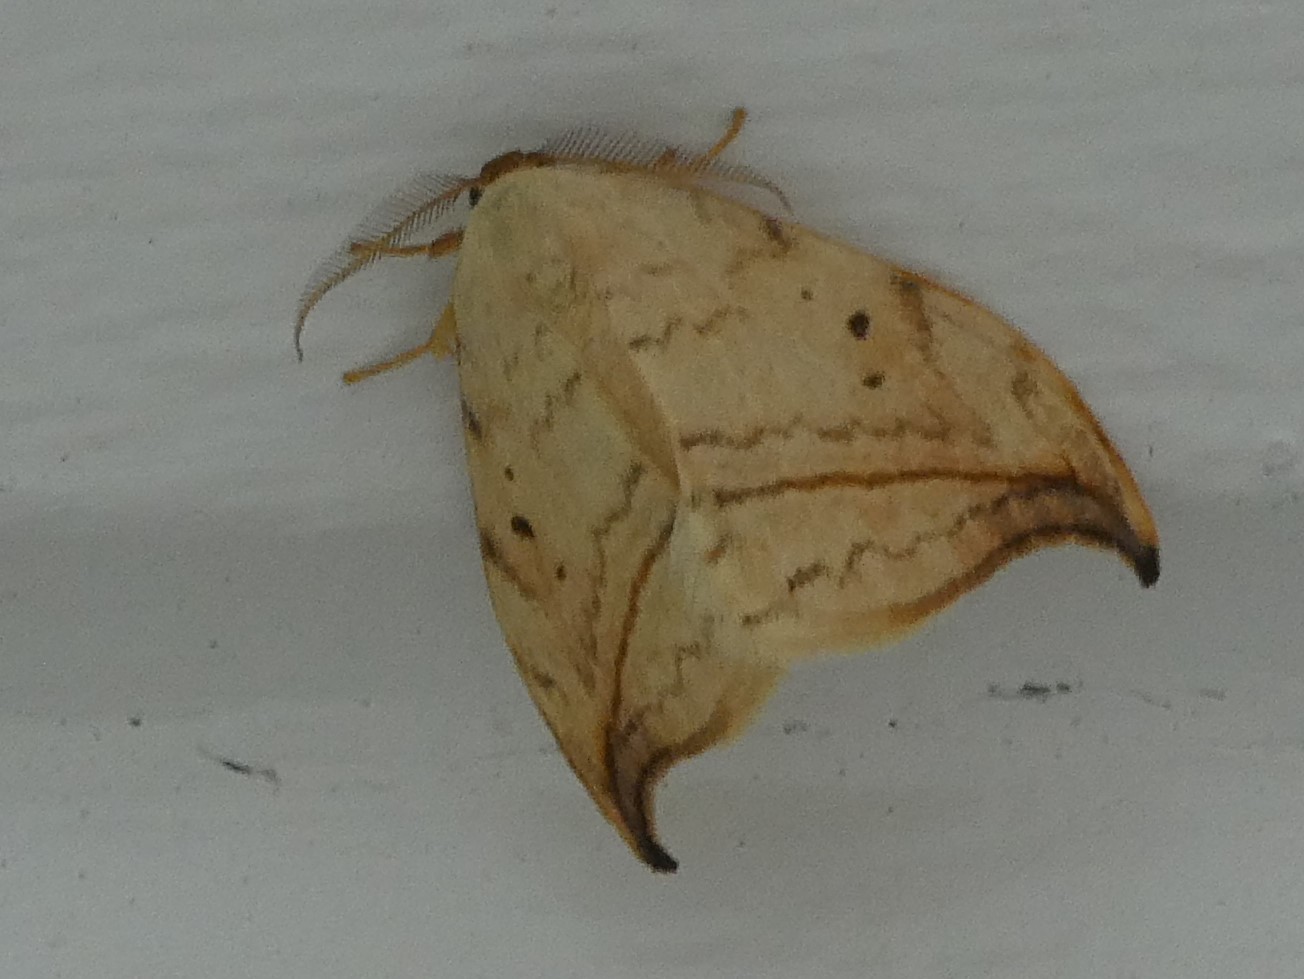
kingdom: Animalia
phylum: Arthropoda
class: Insecta
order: Lepidoptera
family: Drepanidae
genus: Drepana
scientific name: Drepana arcuata
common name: Arched hooktip moth
